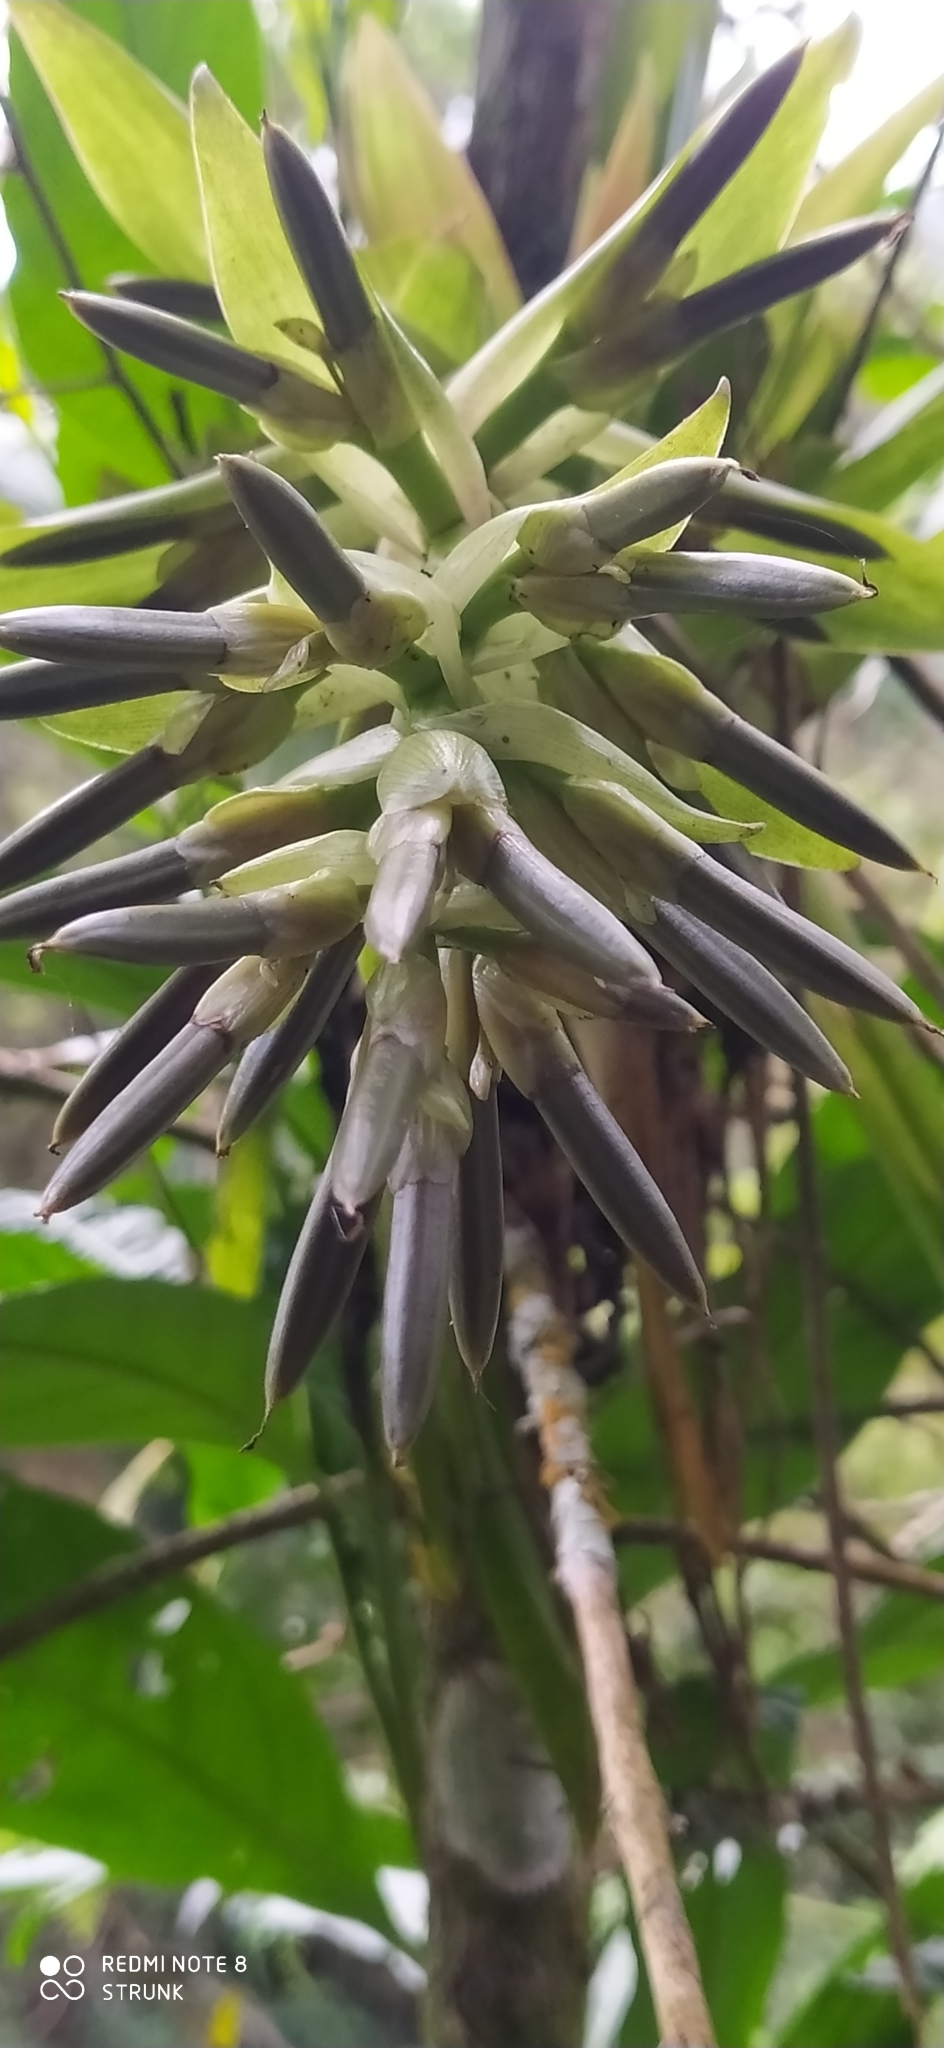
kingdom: Plantae
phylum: Tracheophyta
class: Liliopsida
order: Poales
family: Bromeliaceae
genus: Tillandsia
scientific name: Tillandsia biflora
